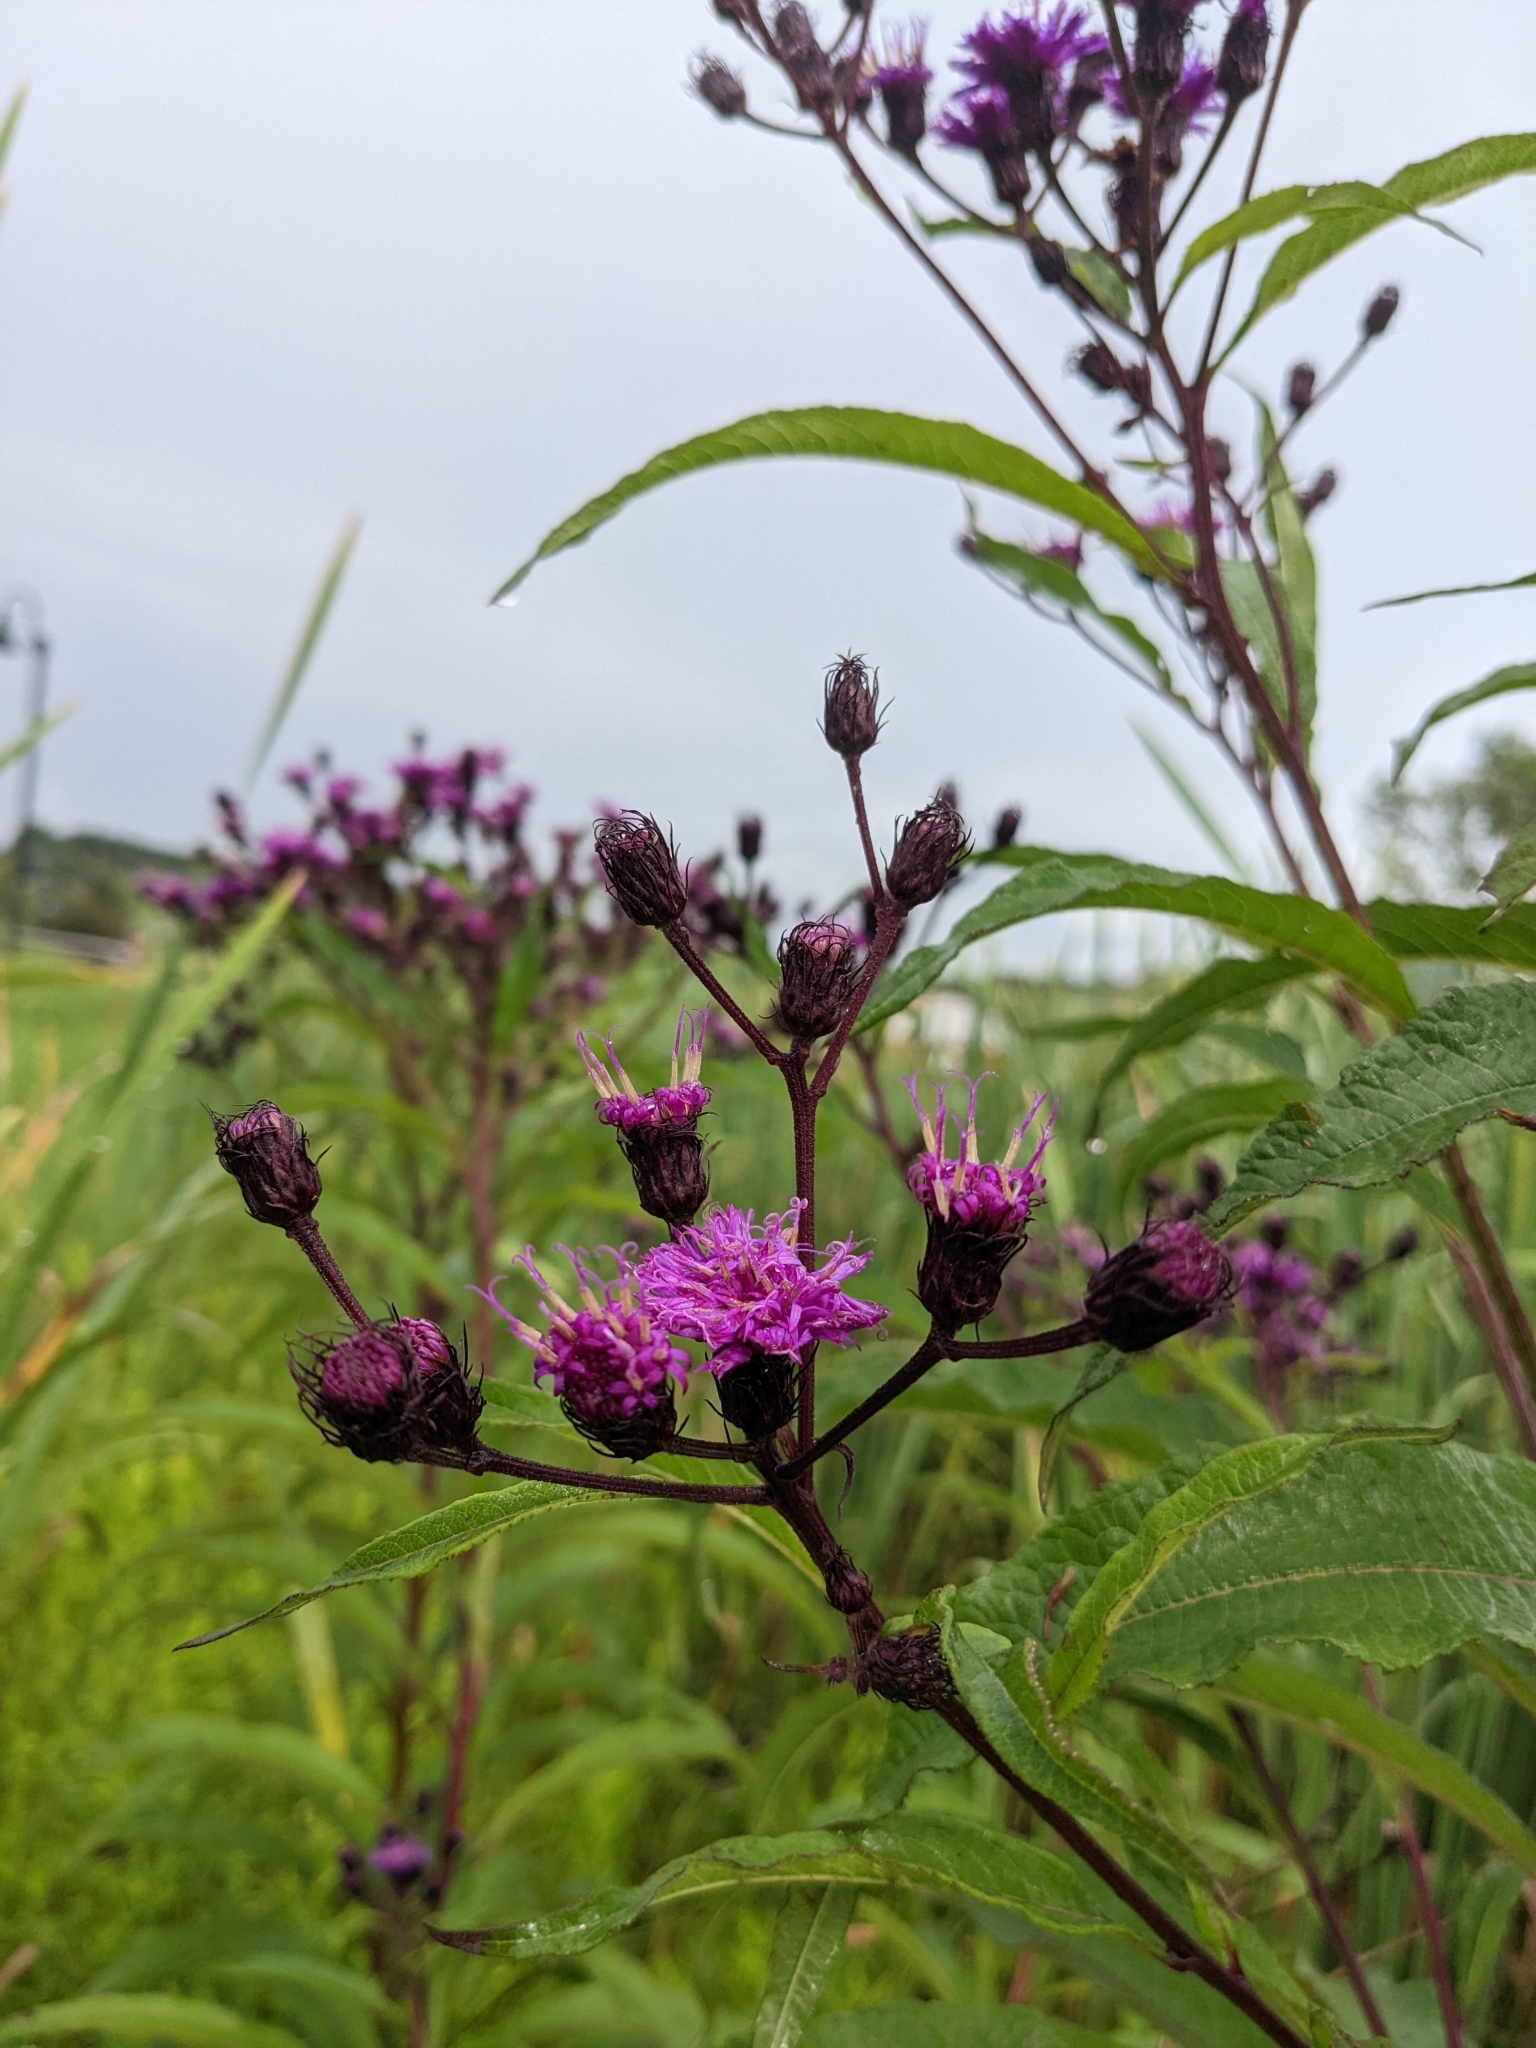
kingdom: Plantae
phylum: Tracheophyta
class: Magnoliopsida
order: Asterales
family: Asteraceae
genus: Vernonia
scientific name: Vernonia noveboracensis
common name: New york ironweed
